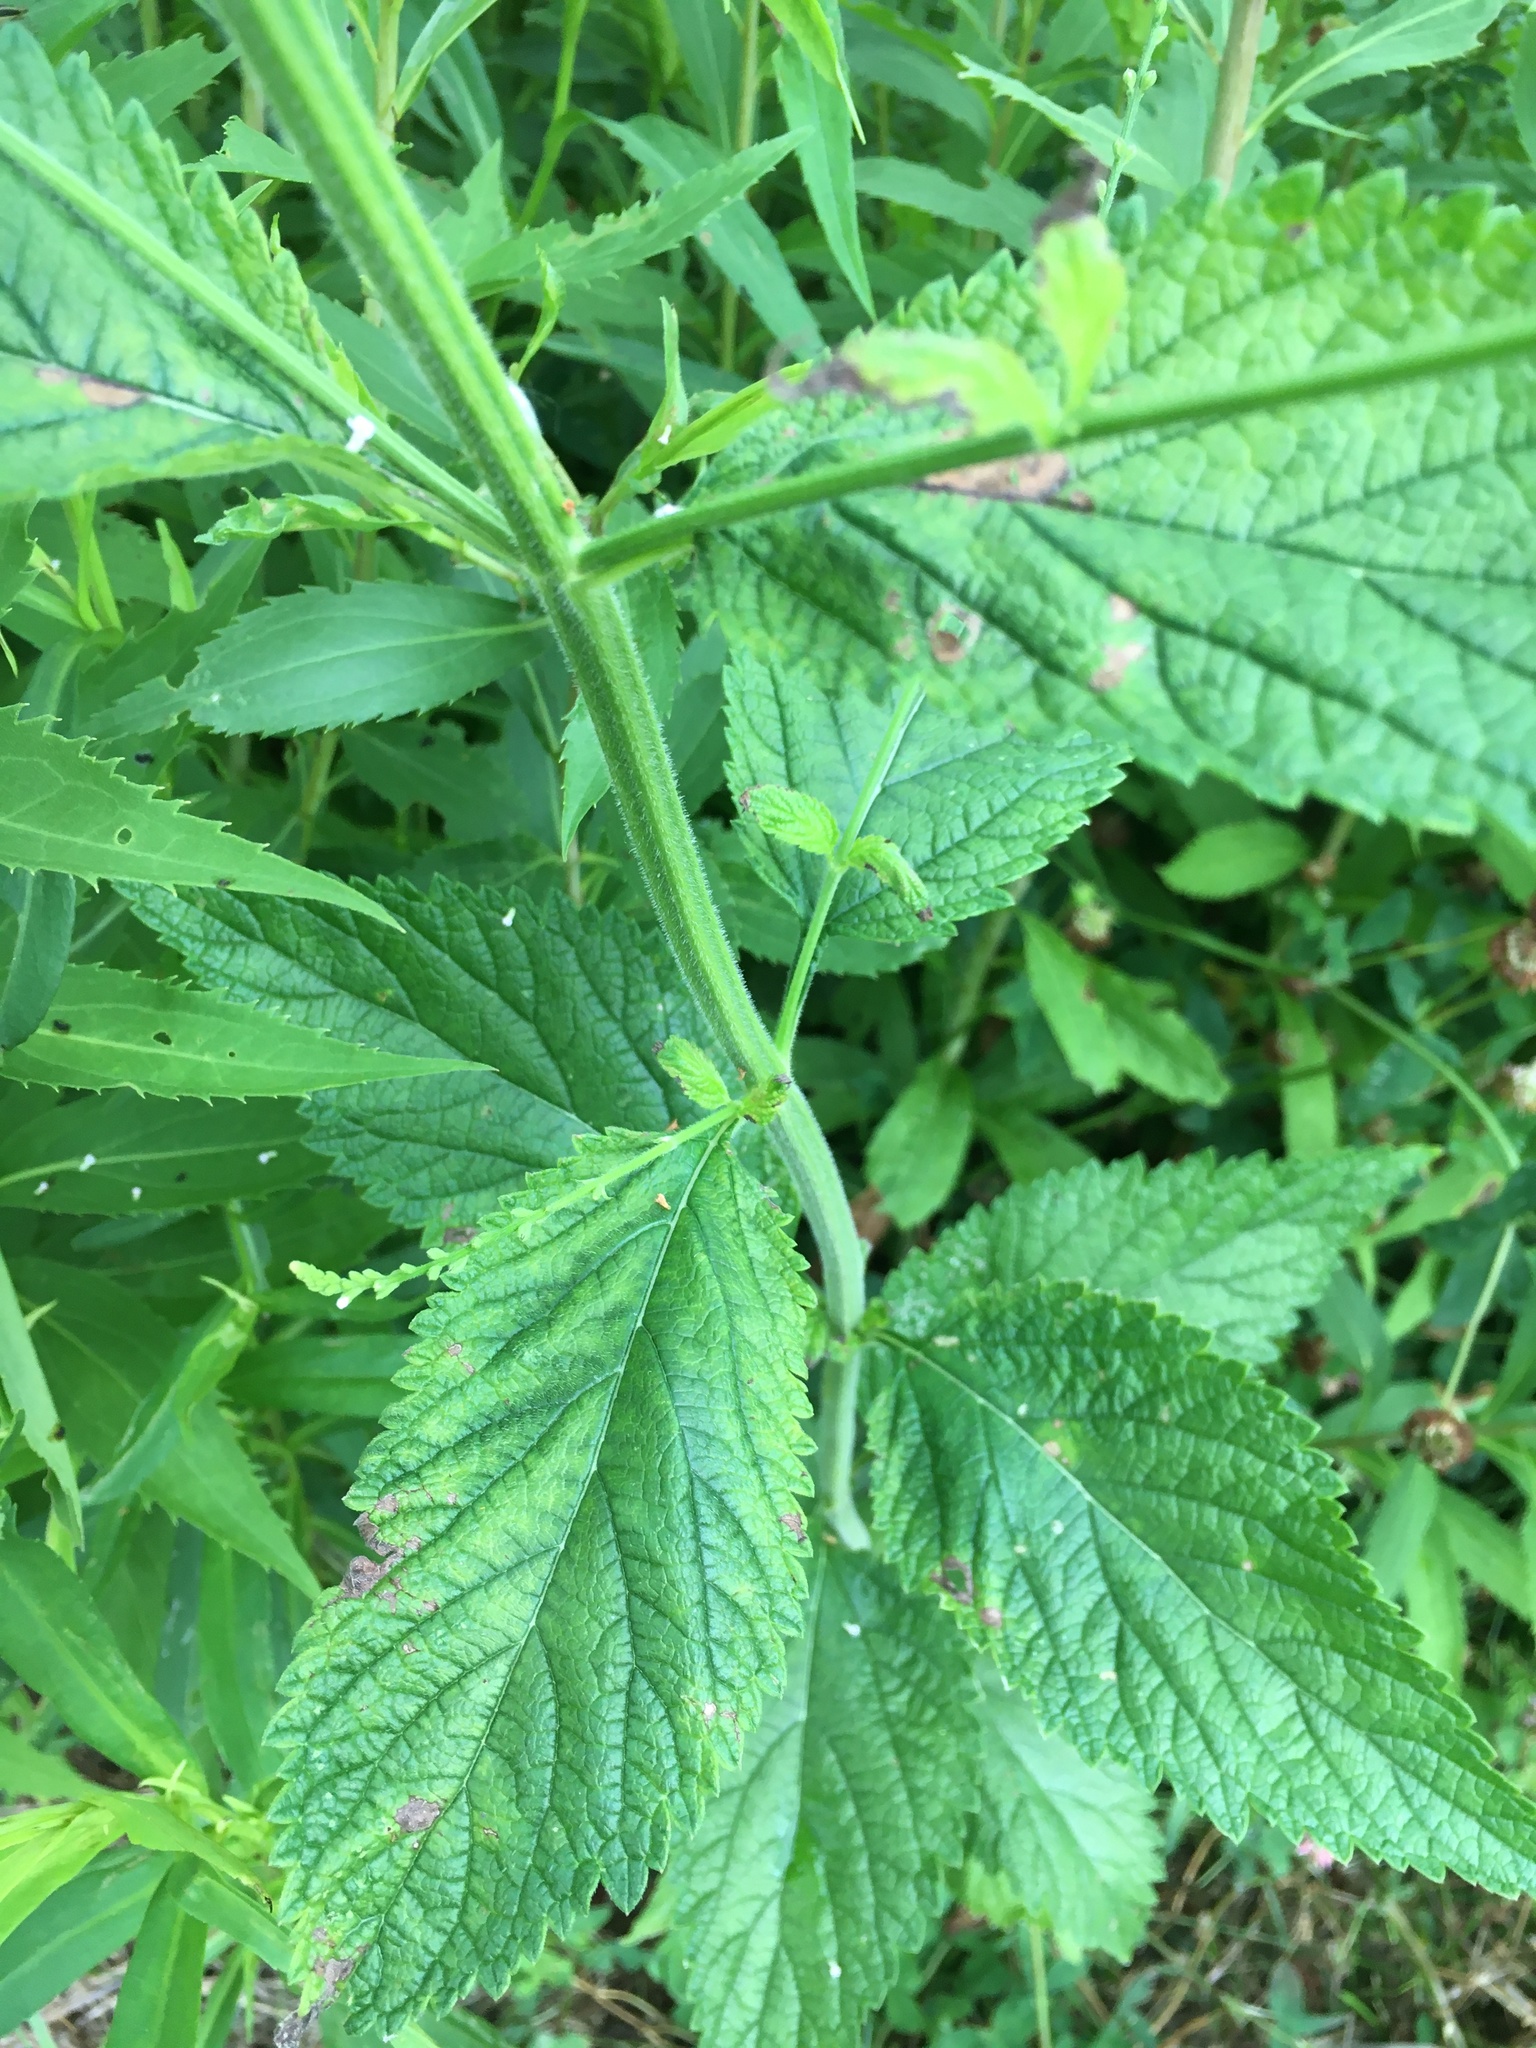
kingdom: Plantae
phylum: Tracheophyta
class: Magnoliopsida
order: Lamiales
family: Verbenaceae
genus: Verbena
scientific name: Verbena urticifolia
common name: Nettle-leaved vervain
